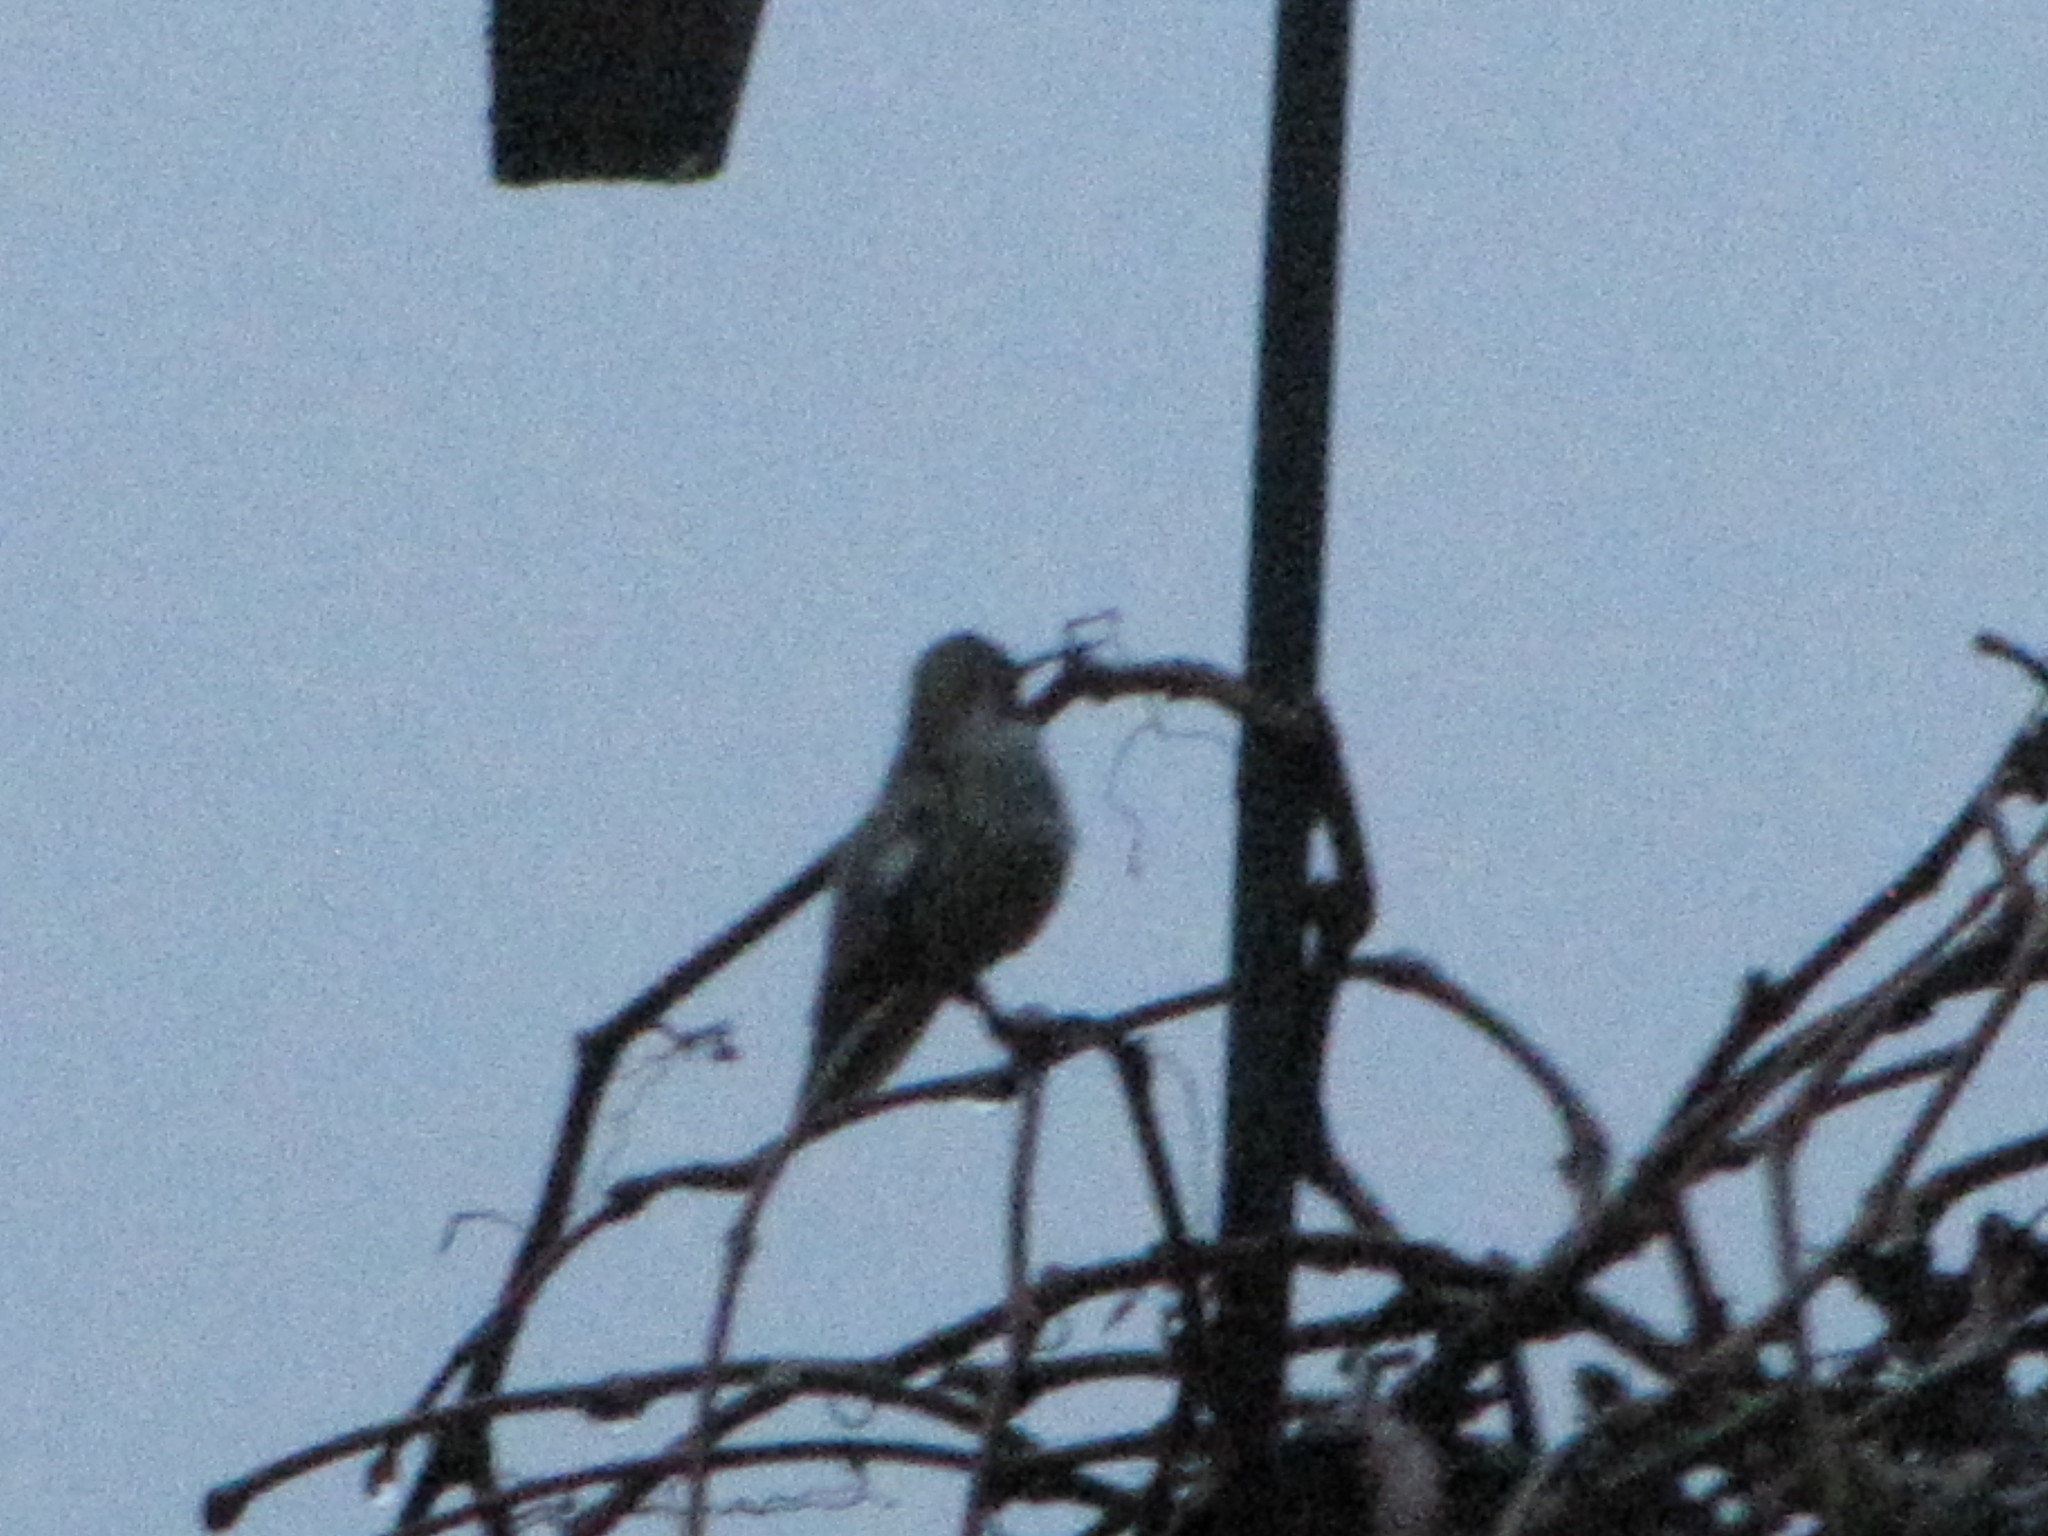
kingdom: Animalia
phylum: Chordata
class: Aves
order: Apodiformes
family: Trochilidae
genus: Calypte
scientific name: Calypte anna
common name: Anna's hummingbird
